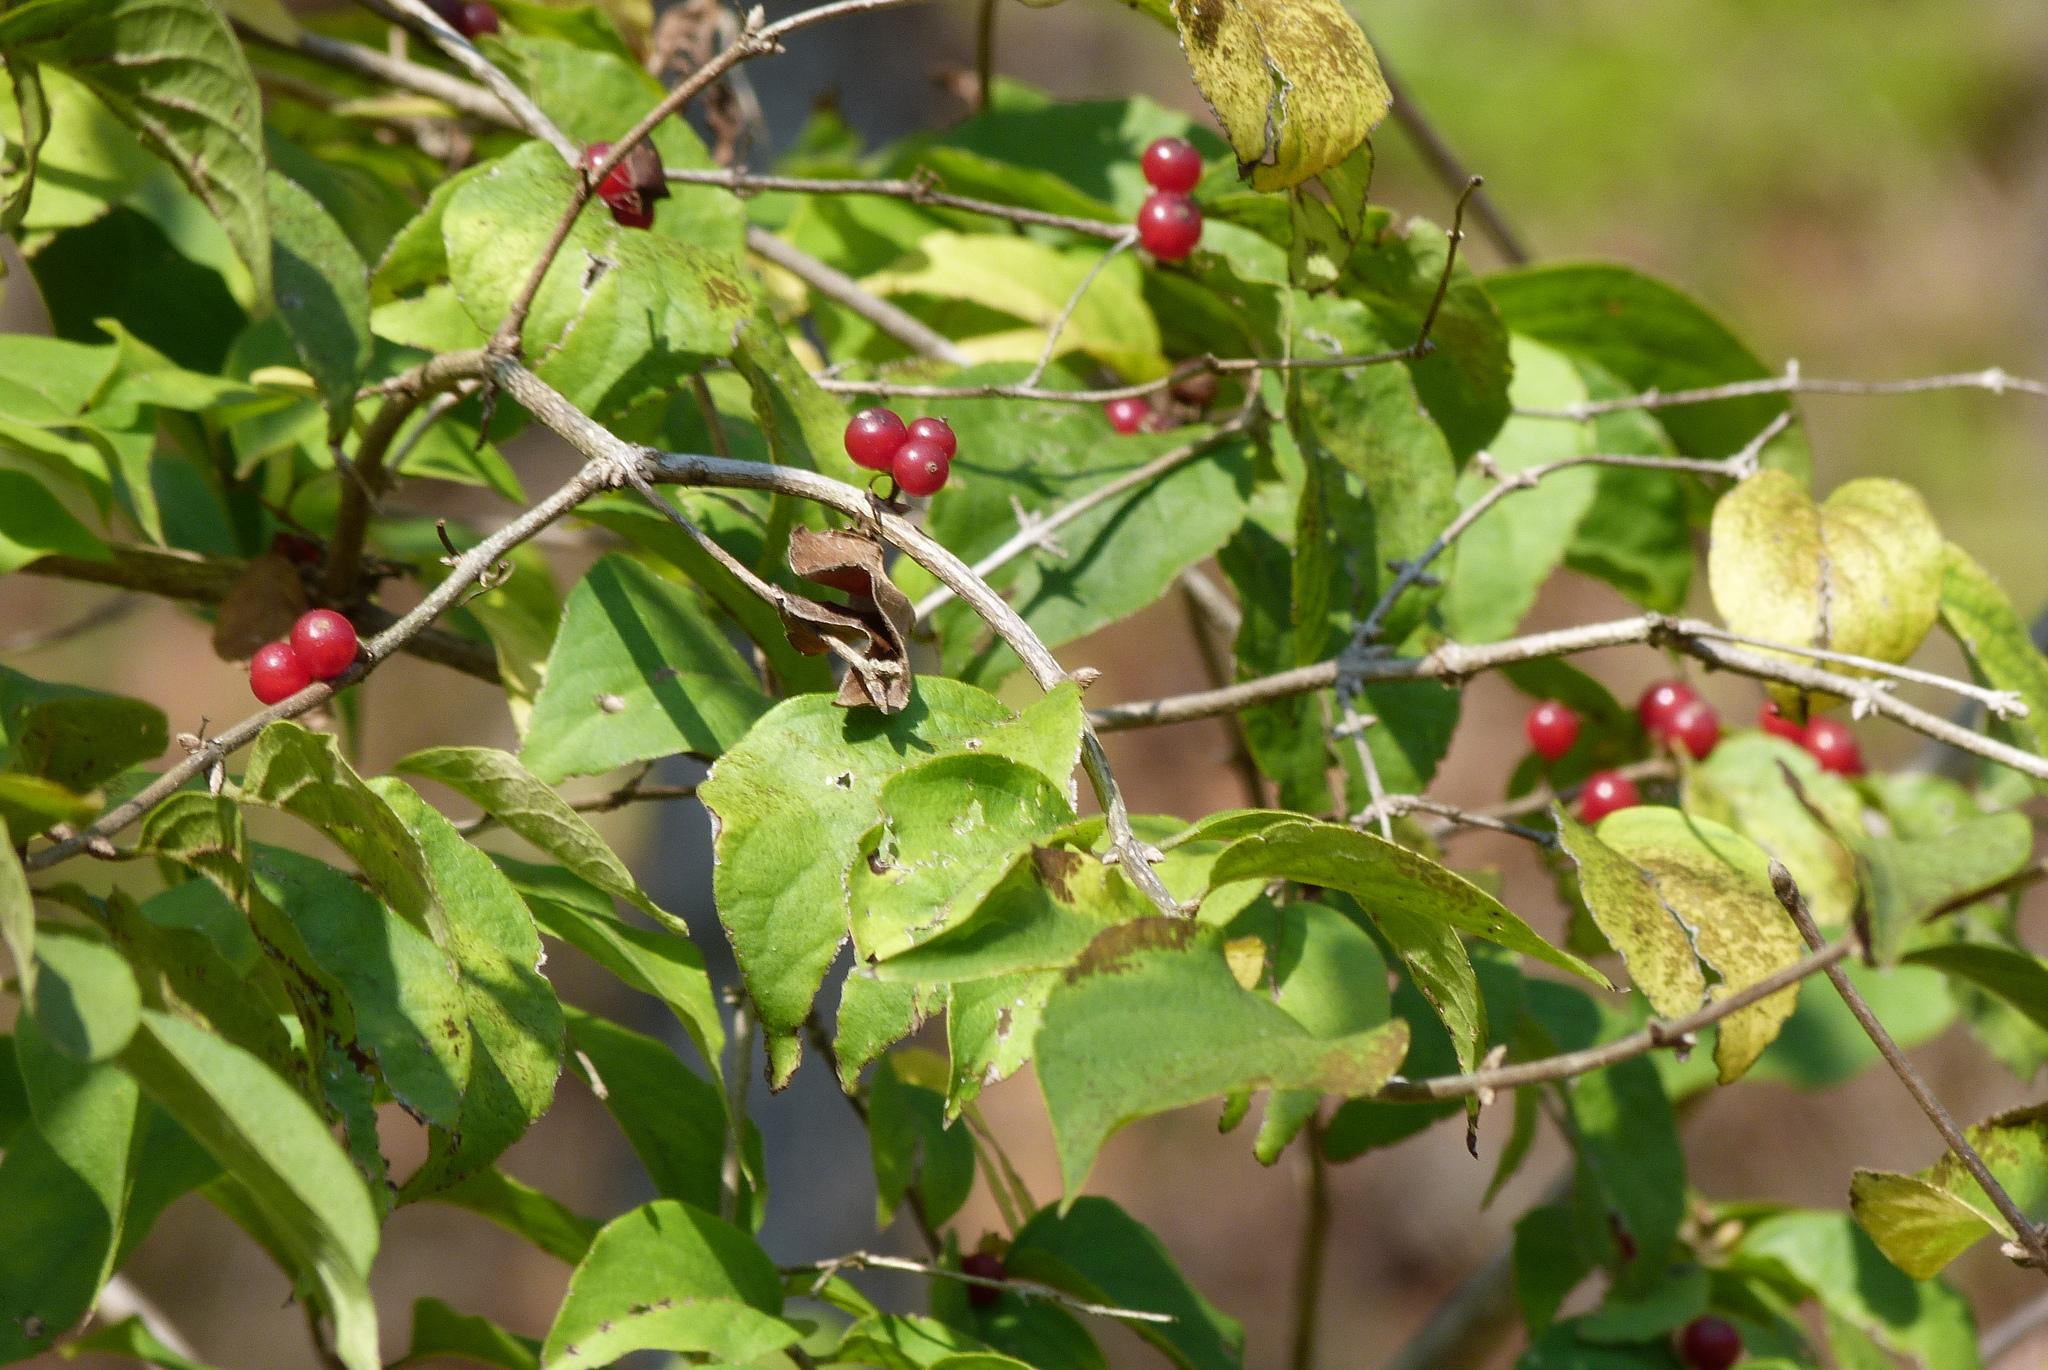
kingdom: Plantae
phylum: Tracheophyta
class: Magnoliopsida
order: Dipsacales
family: Caprifoliaceae
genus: Lonicera
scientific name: Lonicera maackii
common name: Amur honeysuckle
